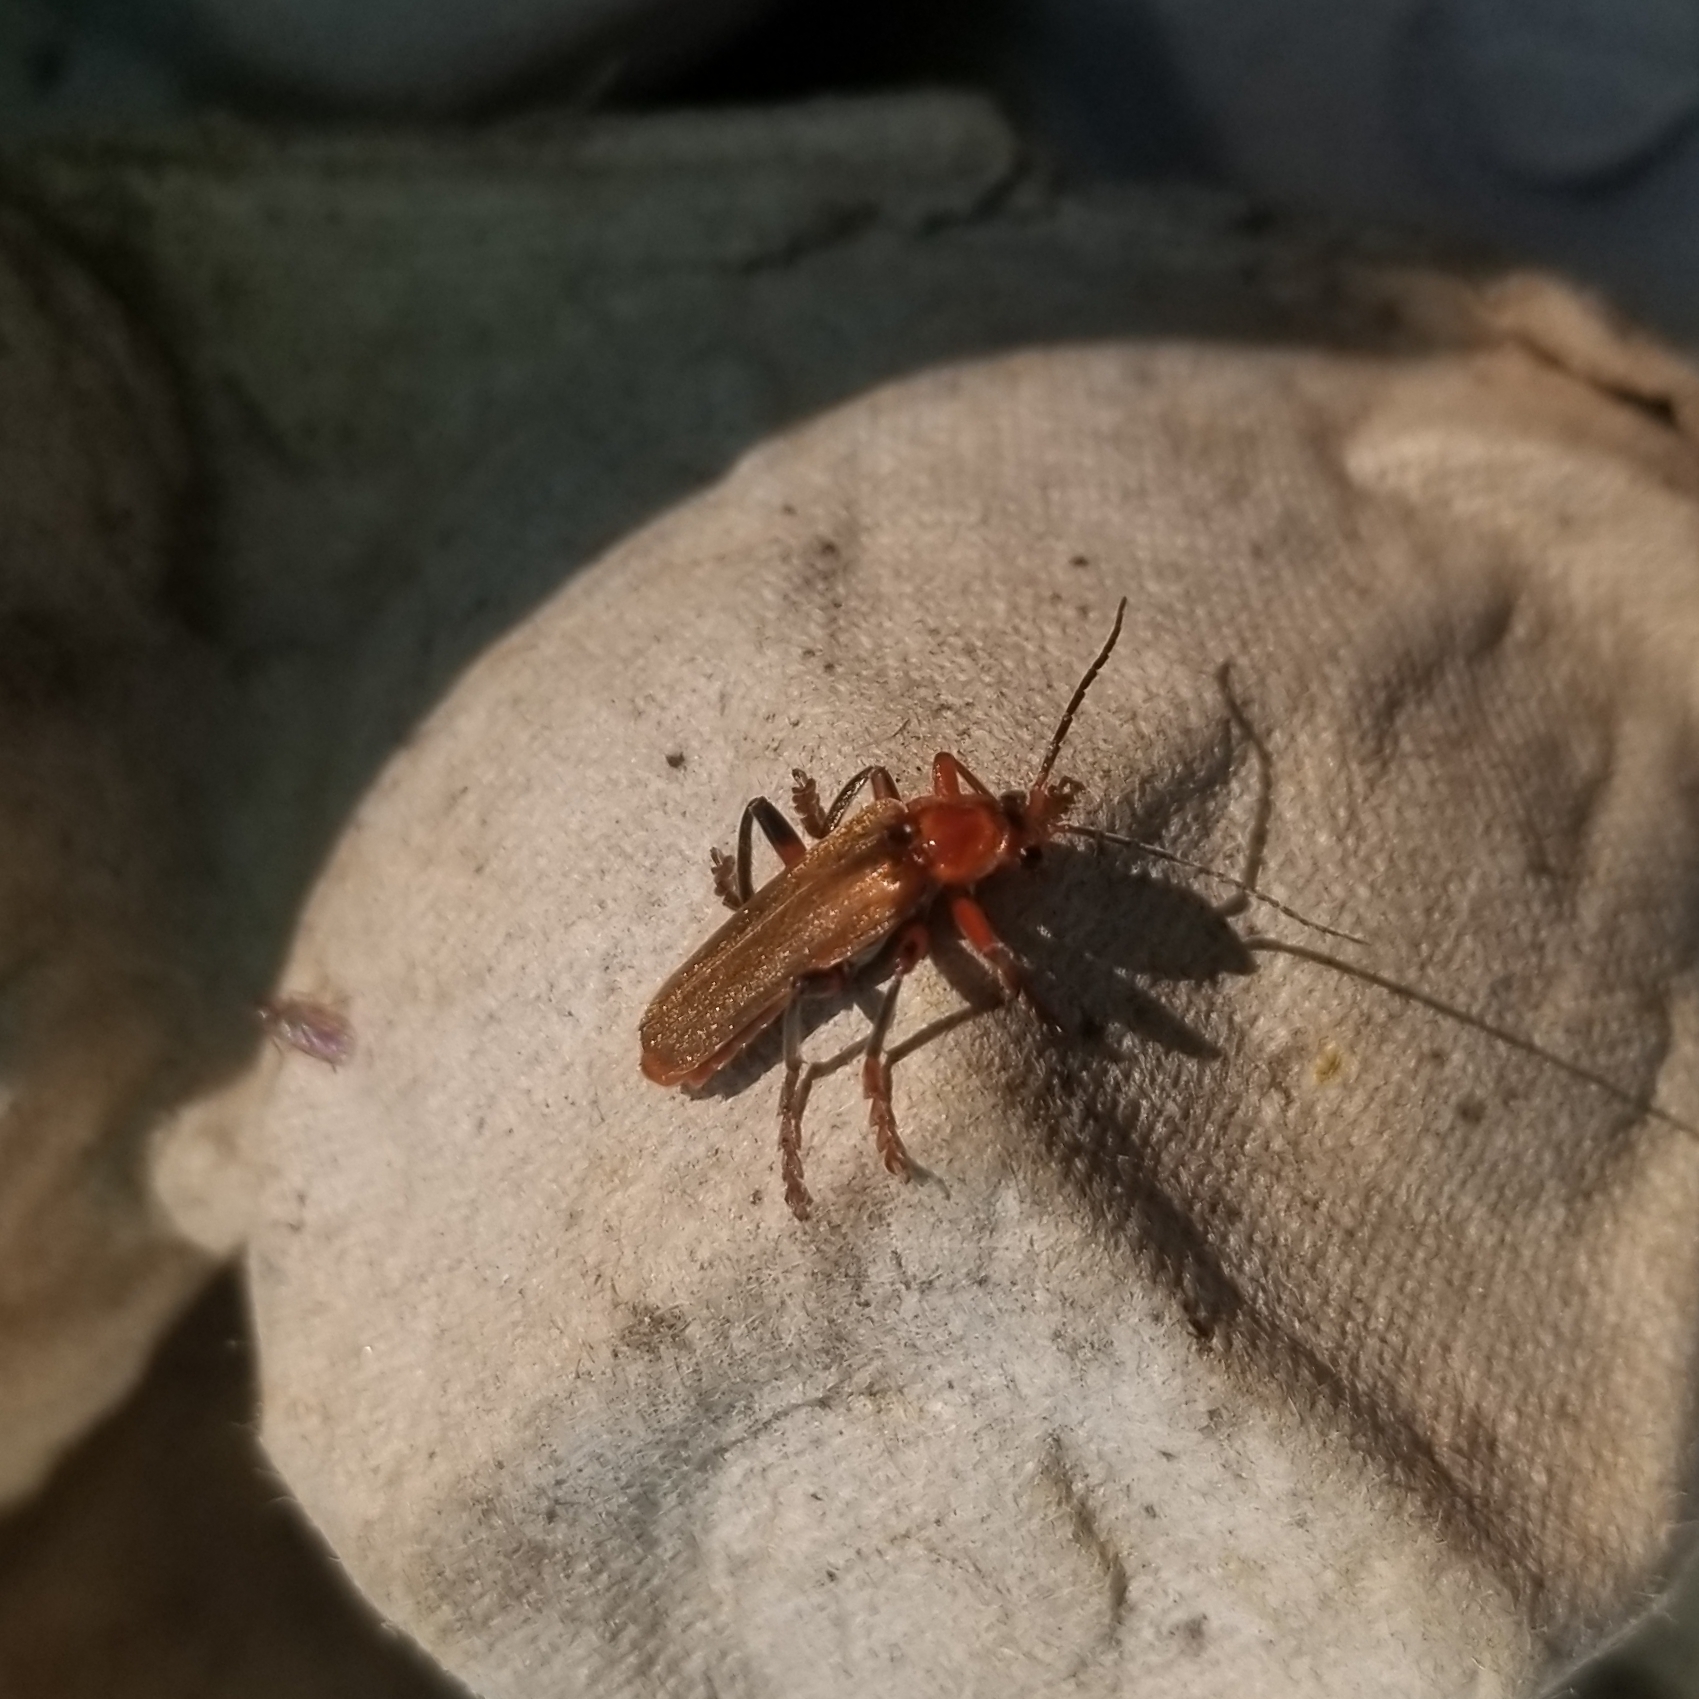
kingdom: Animalia
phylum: Arthropoda
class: Insecta
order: Coleoptera
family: Cantharidae
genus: Cantharis
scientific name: Cantharis livida
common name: Livid soldier beetle
